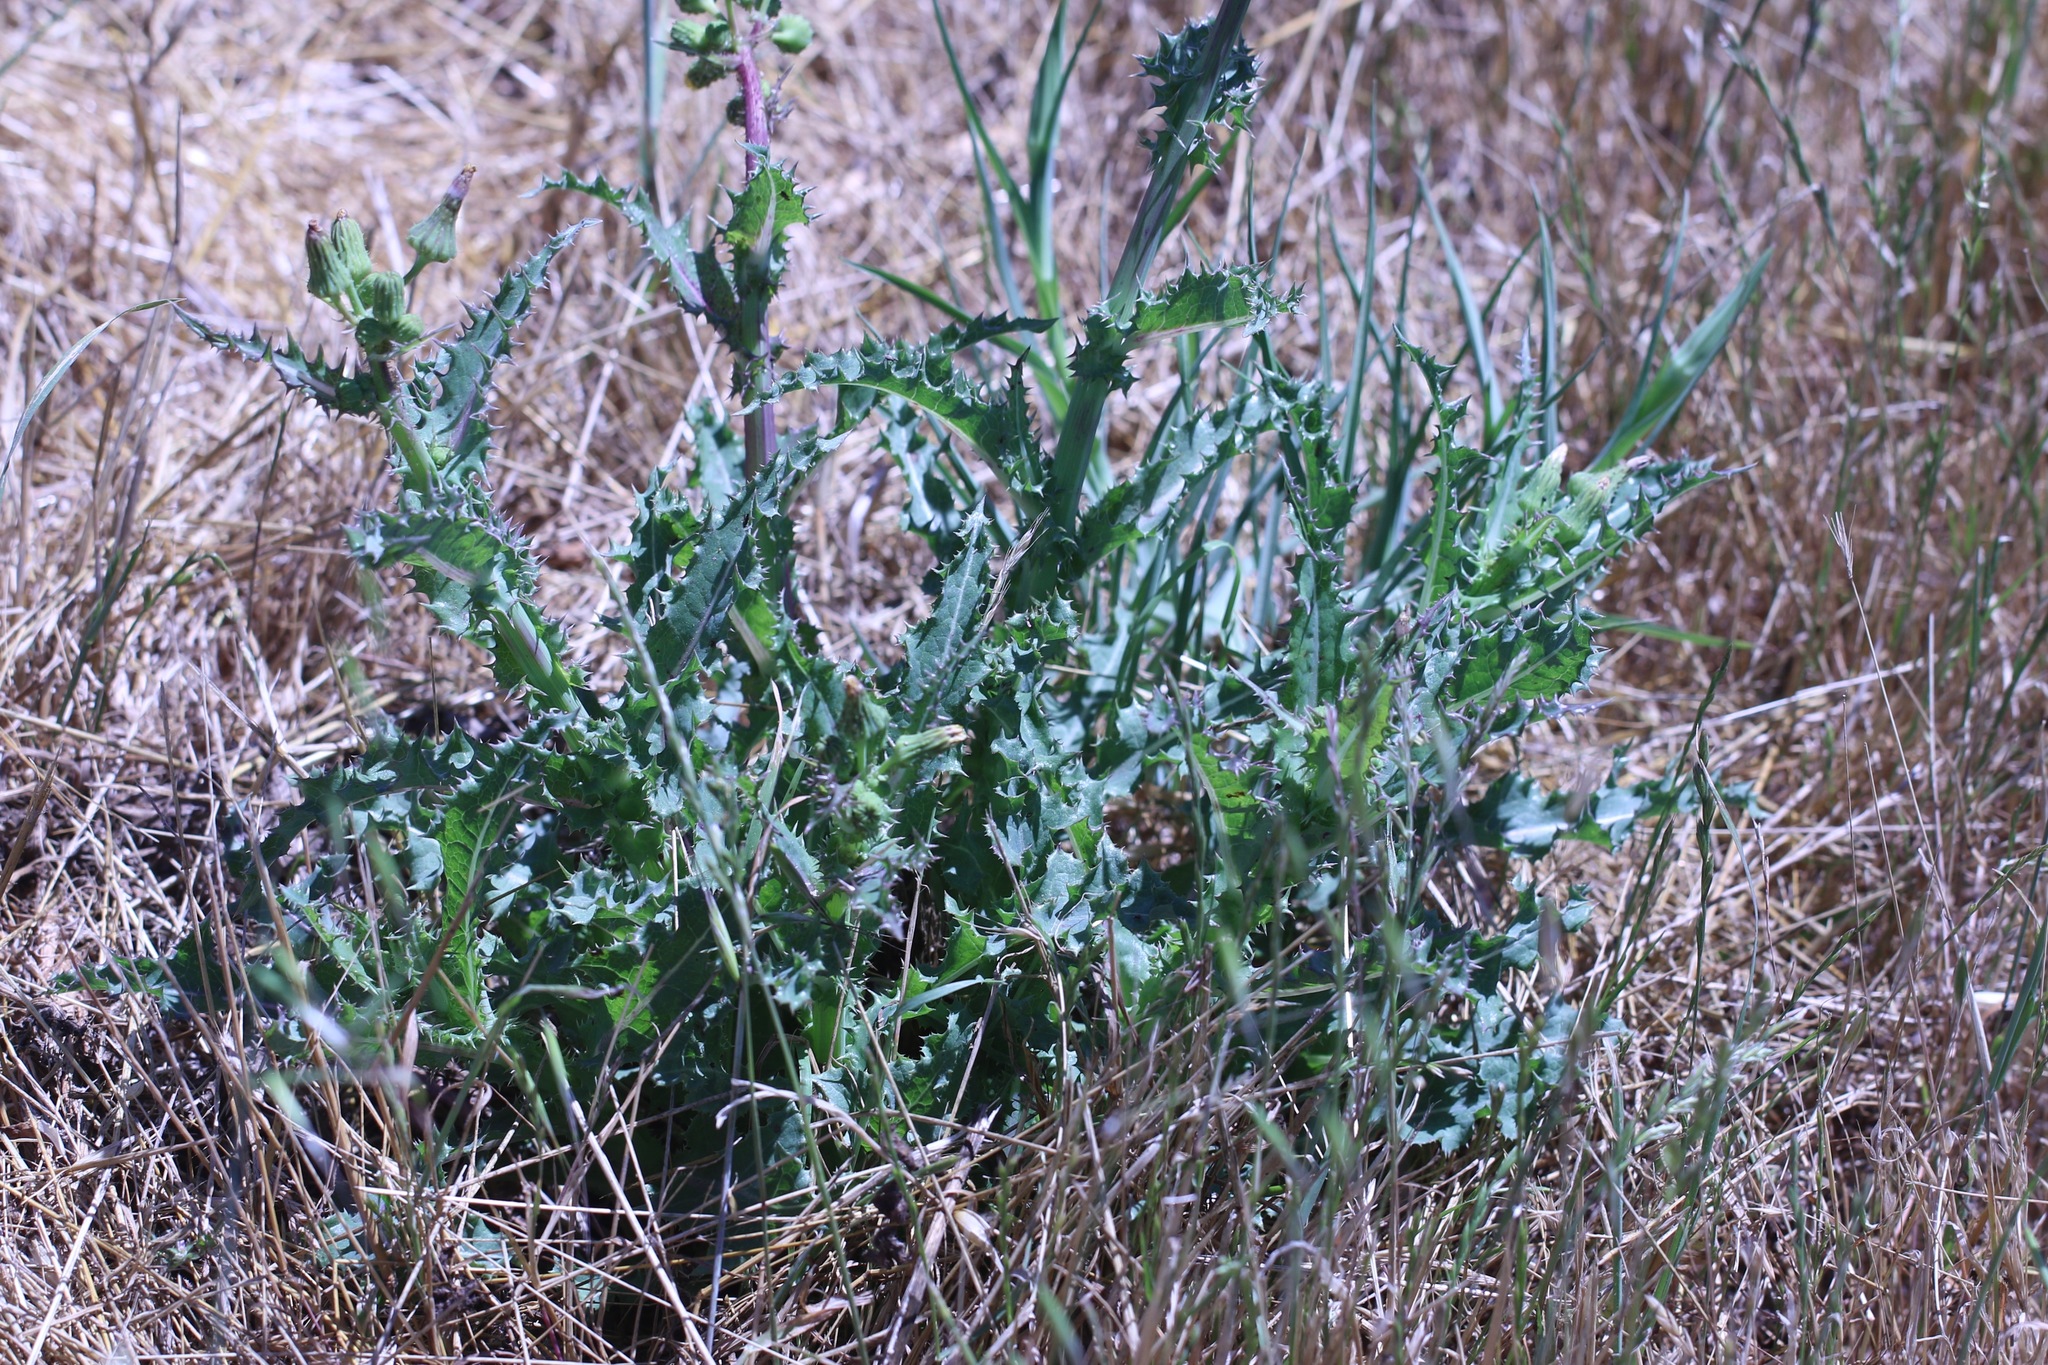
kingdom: Plantae
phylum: Tracheophyta
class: Magnoliopsida
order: Asterales
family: Asteraceae
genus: Sonchus
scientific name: Sonchus asper
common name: Prickly sow-thistle
